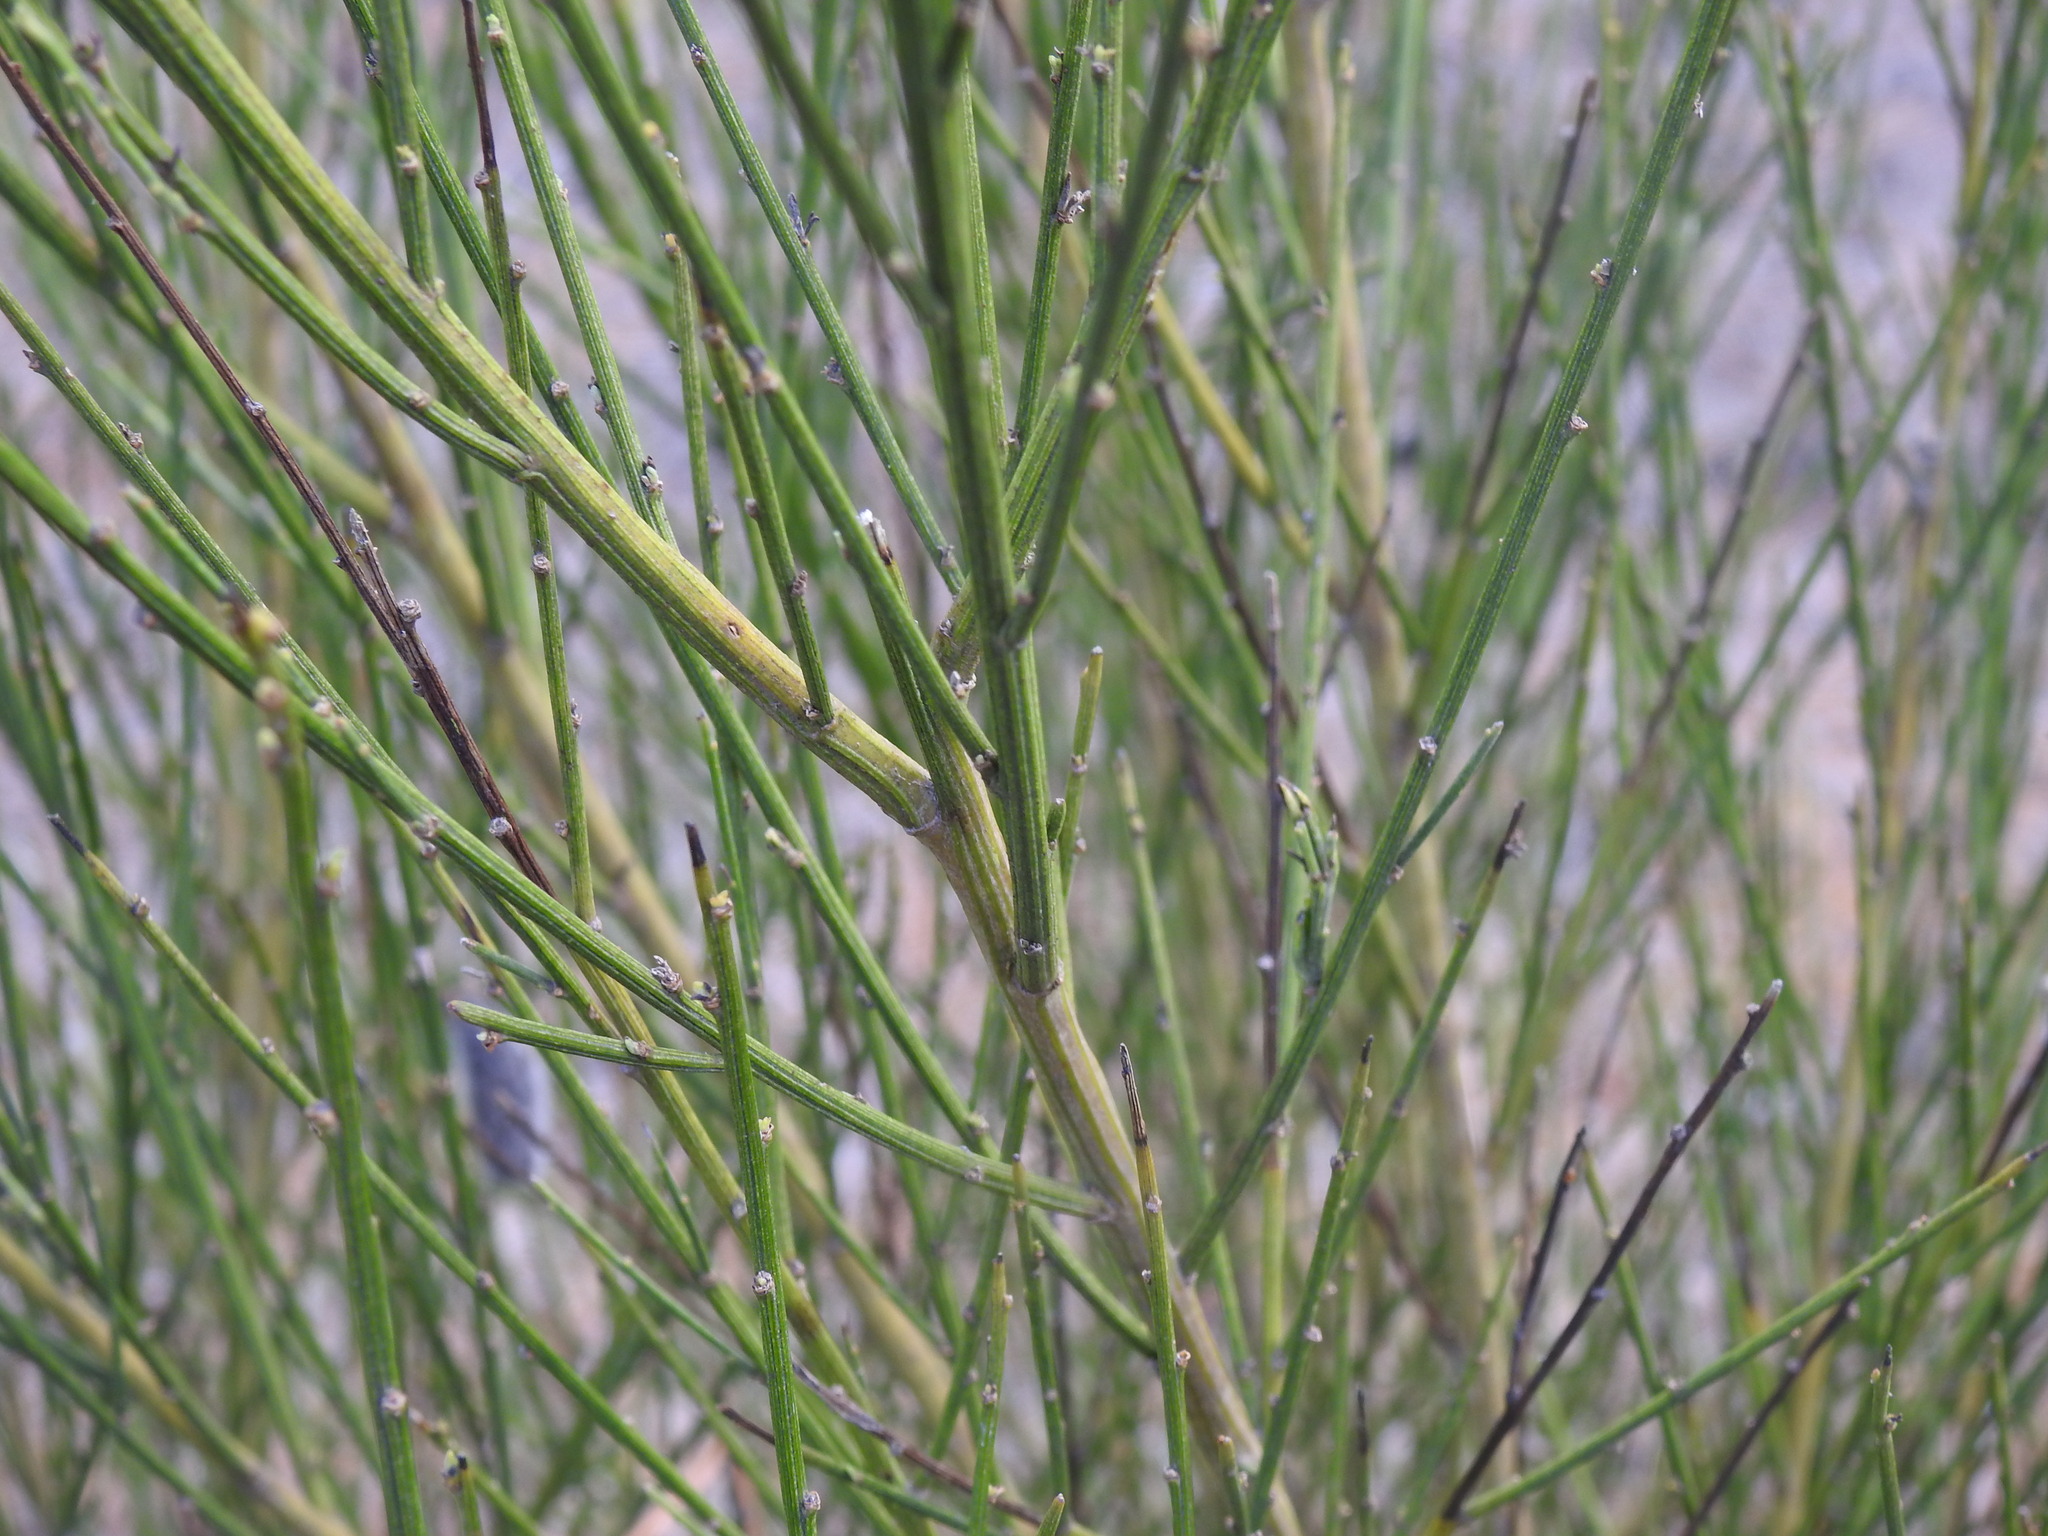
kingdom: Plantae
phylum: Tracheophyta
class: Magnoliopsida
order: Fabales
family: Fabaceae
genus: Cytisus
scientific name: Cytisus striatus
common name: Hairy-fruited broom
